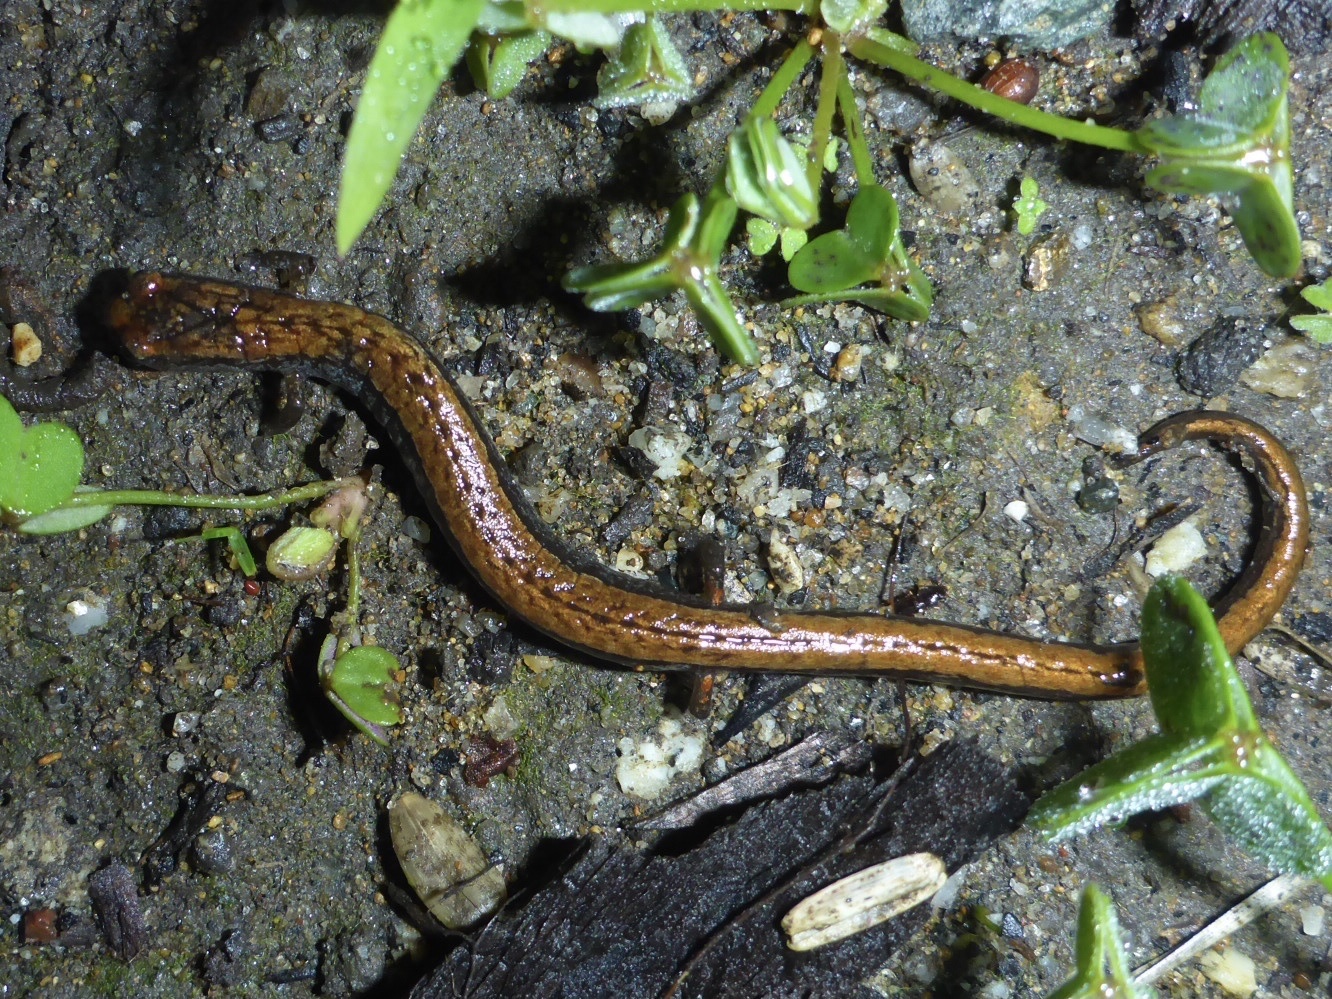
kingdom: Animalia
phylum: Chordata
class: Amphibia
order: Caudata
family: Plethodontidae
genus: Batrachoseps
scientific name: Batrachoseps attenuatus
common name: California slender salamander
